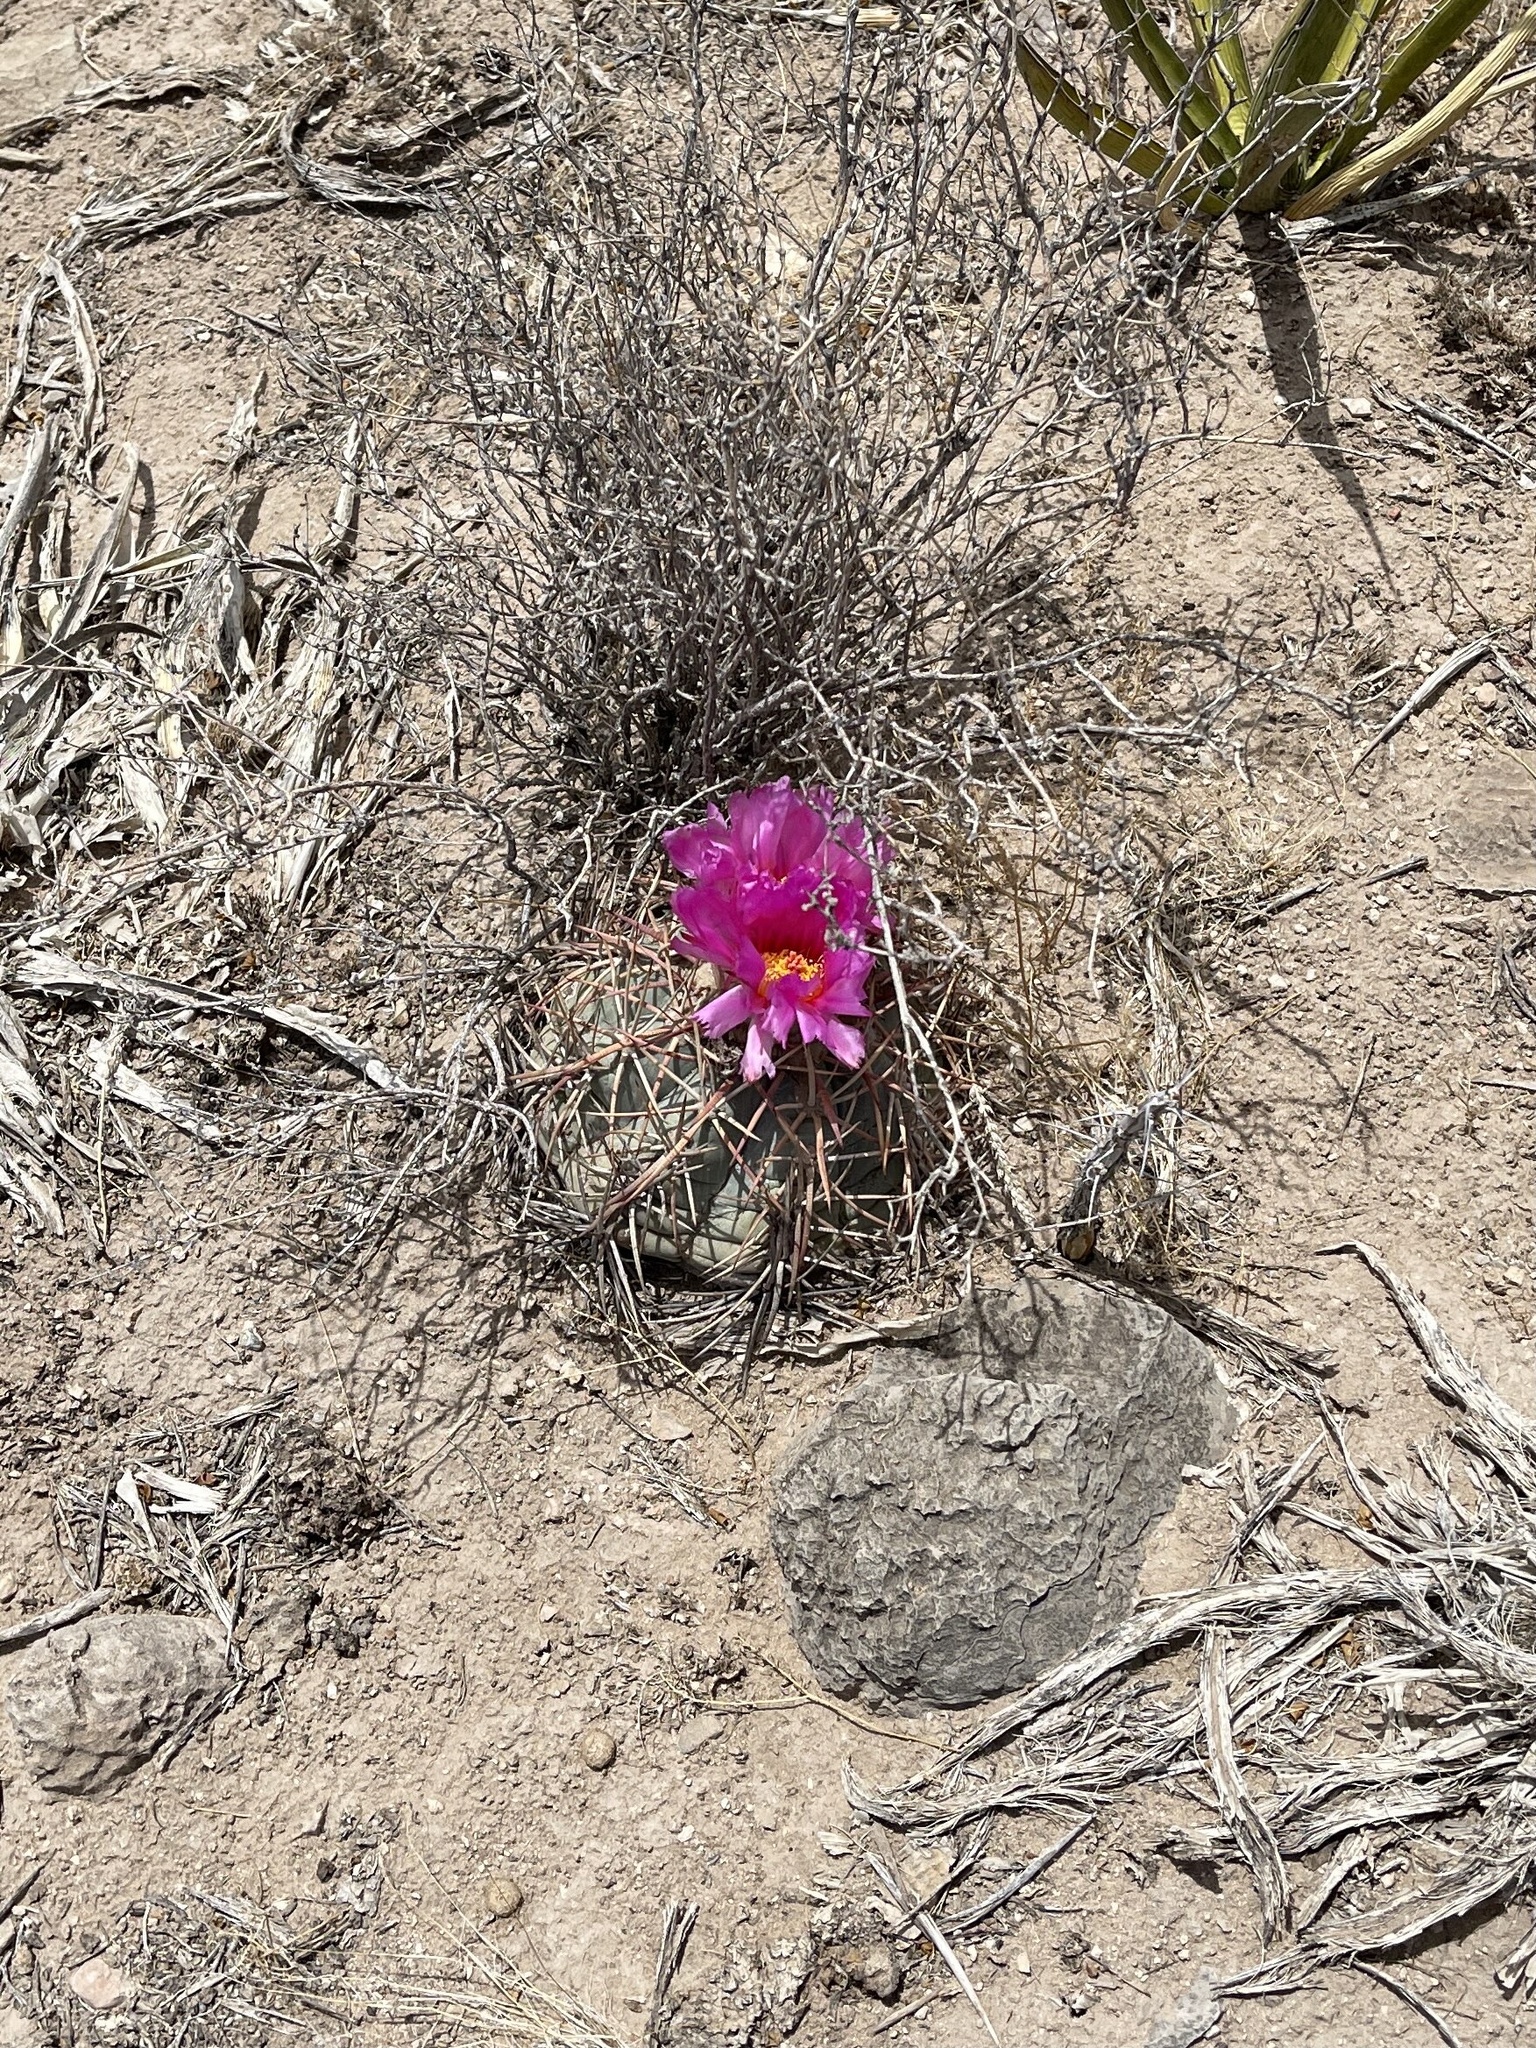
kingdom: Plantae
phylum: Tracheophyta
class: Magnoliopsida
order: Caryophyllales
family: Cactaceae
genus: Echinocactus
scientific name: Echinocactus horizonthalonius
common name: Devilshead
